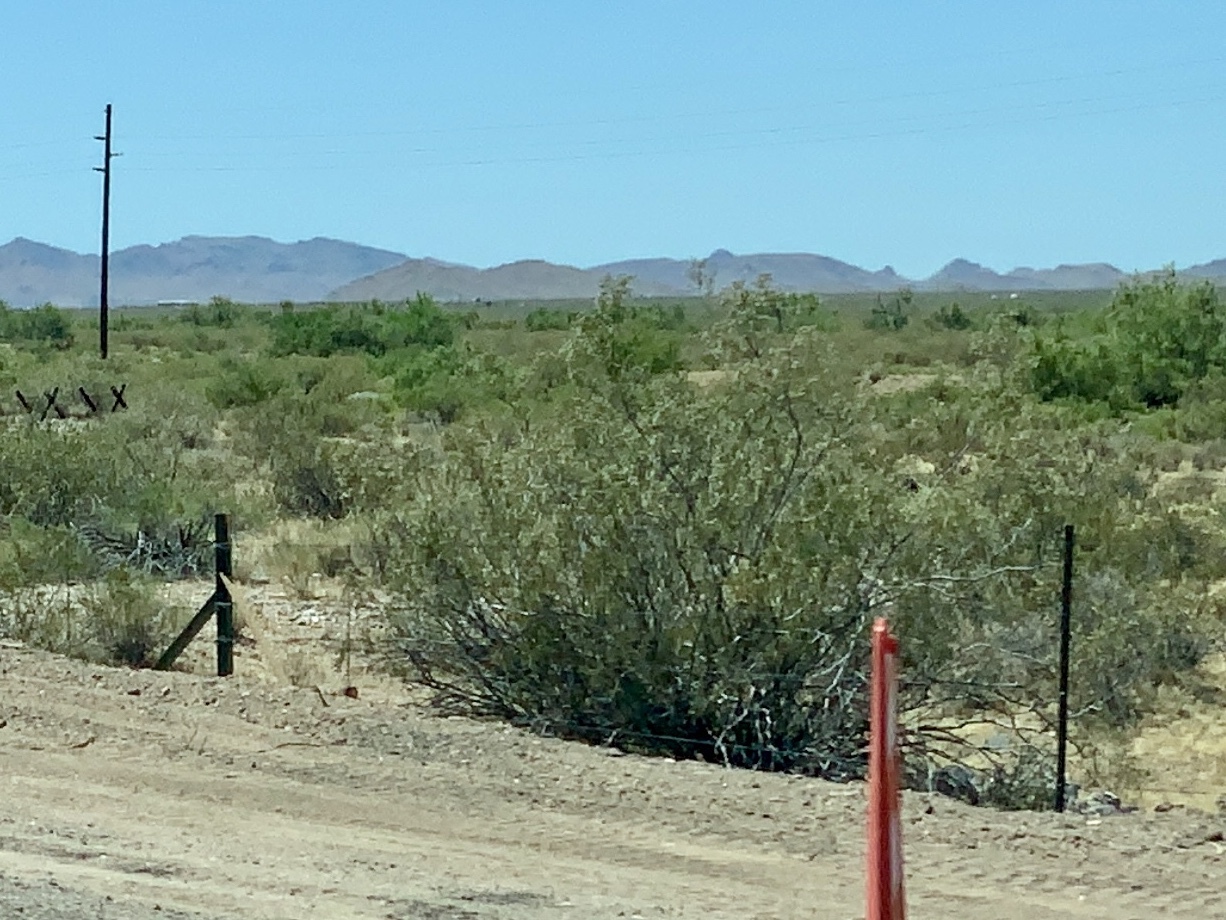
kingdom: Plantae
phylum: Tracheophyta
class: Magnoliopsida
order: Zygophyllales
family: Zygophyllaceae
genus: Larrea
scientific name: Larrea tridentata
